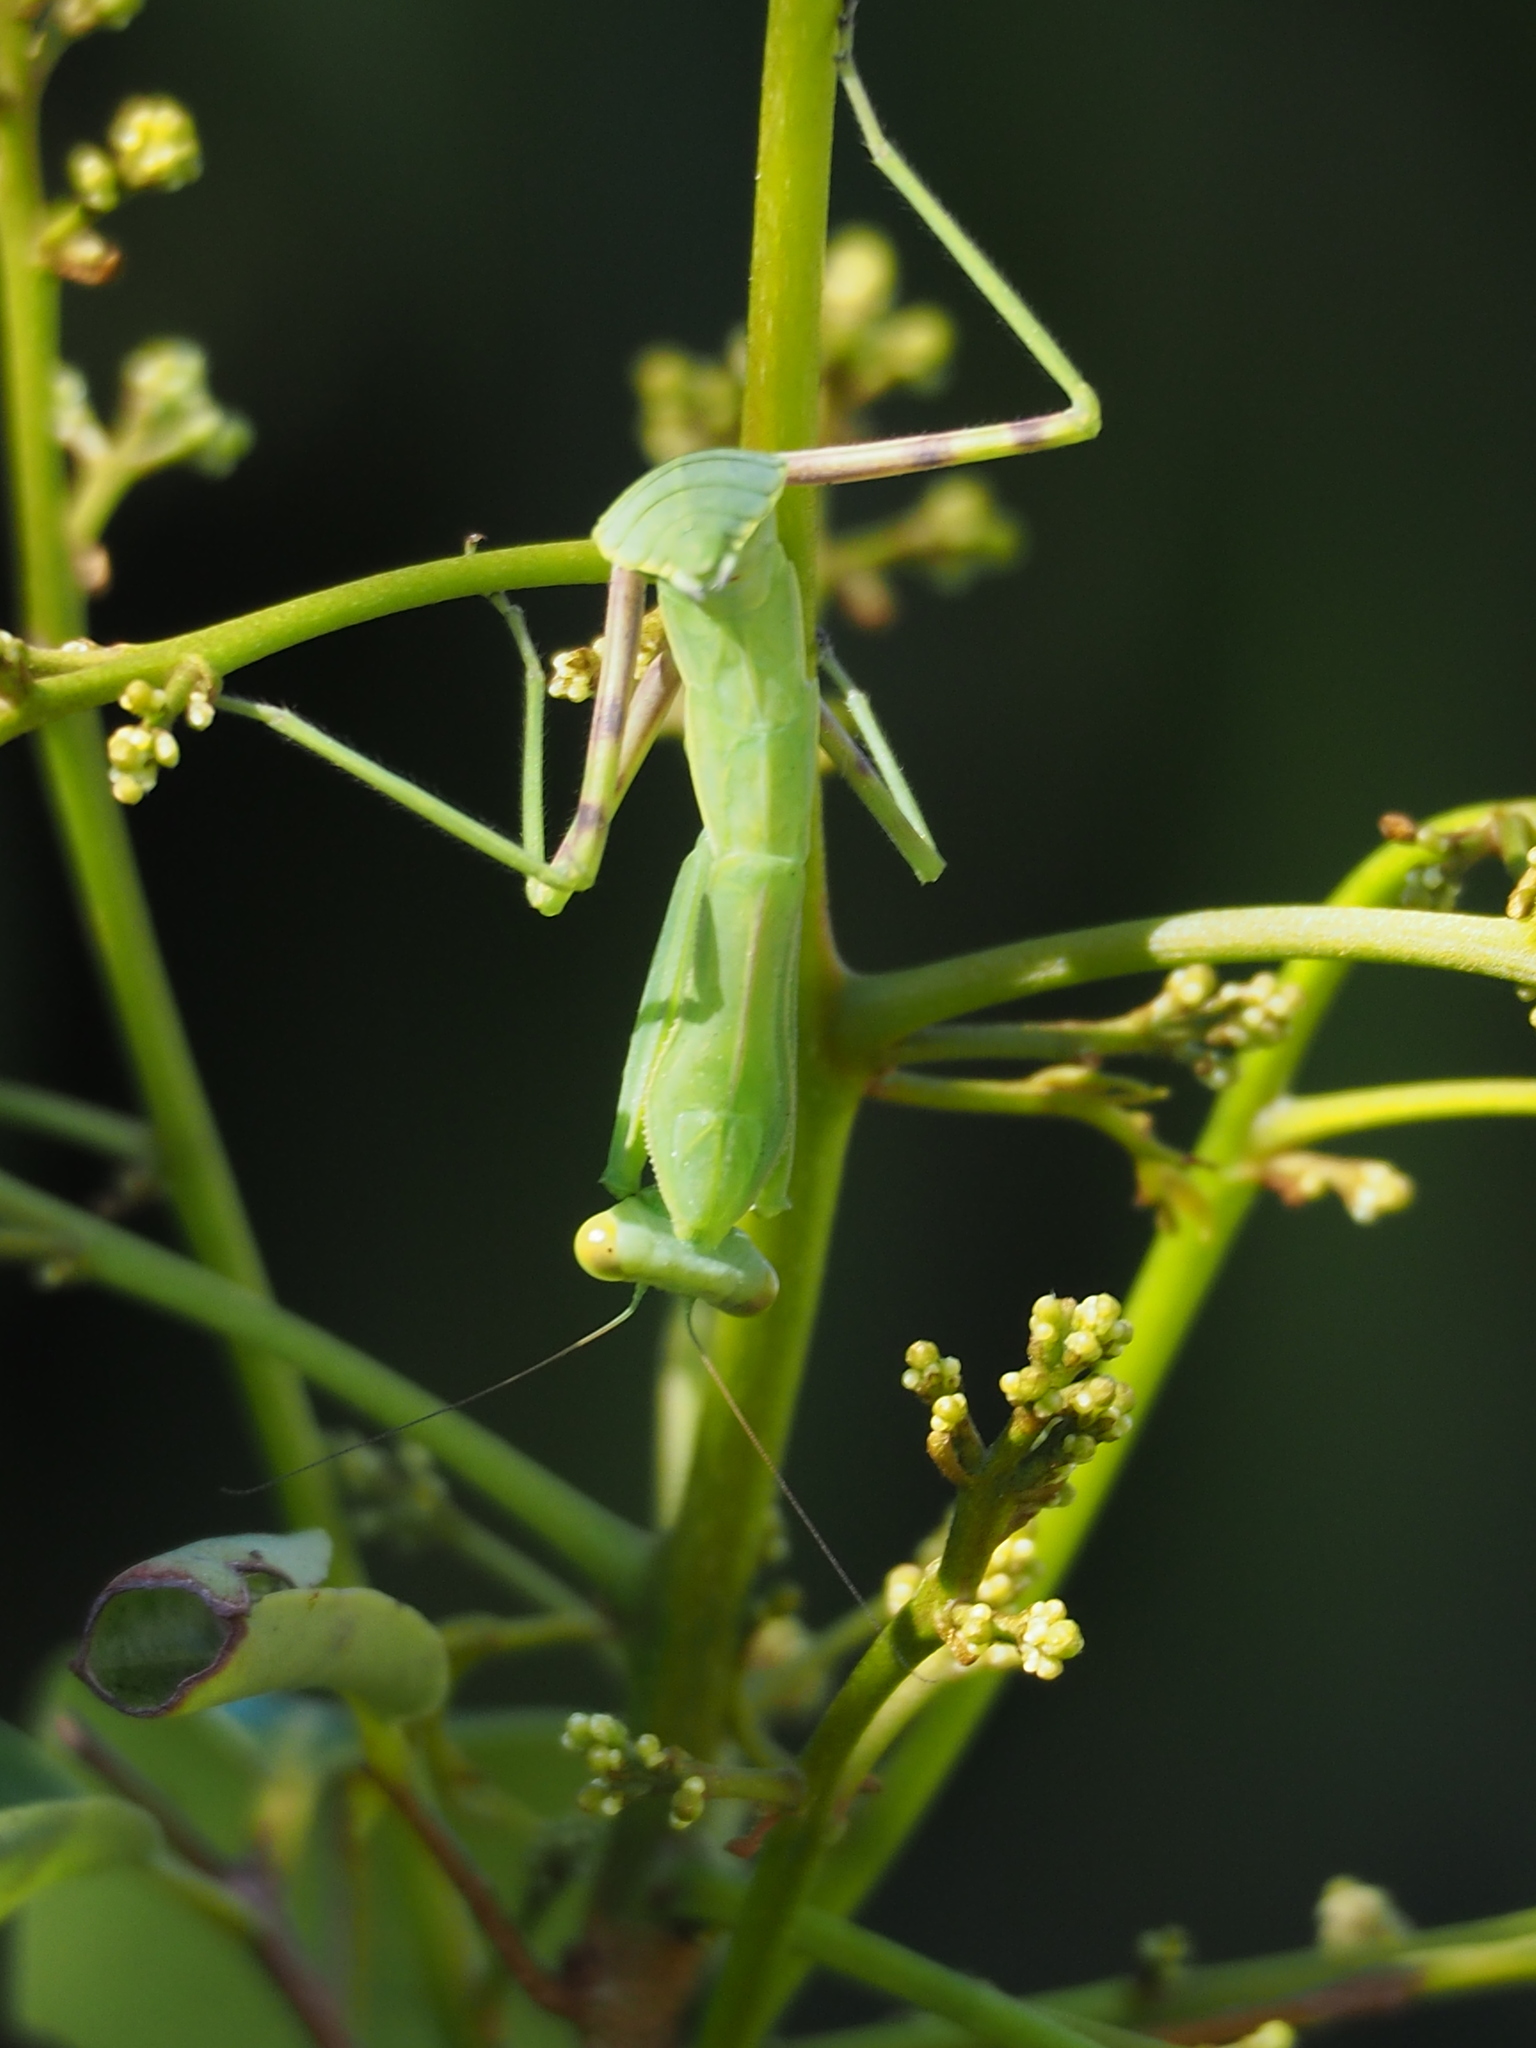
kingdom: Animalia
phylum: Arthropoda
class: Insecta
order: Mantodea
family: Mantidae
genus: Hierodula
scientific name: Hierodula patellifera
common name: Asian mantis
